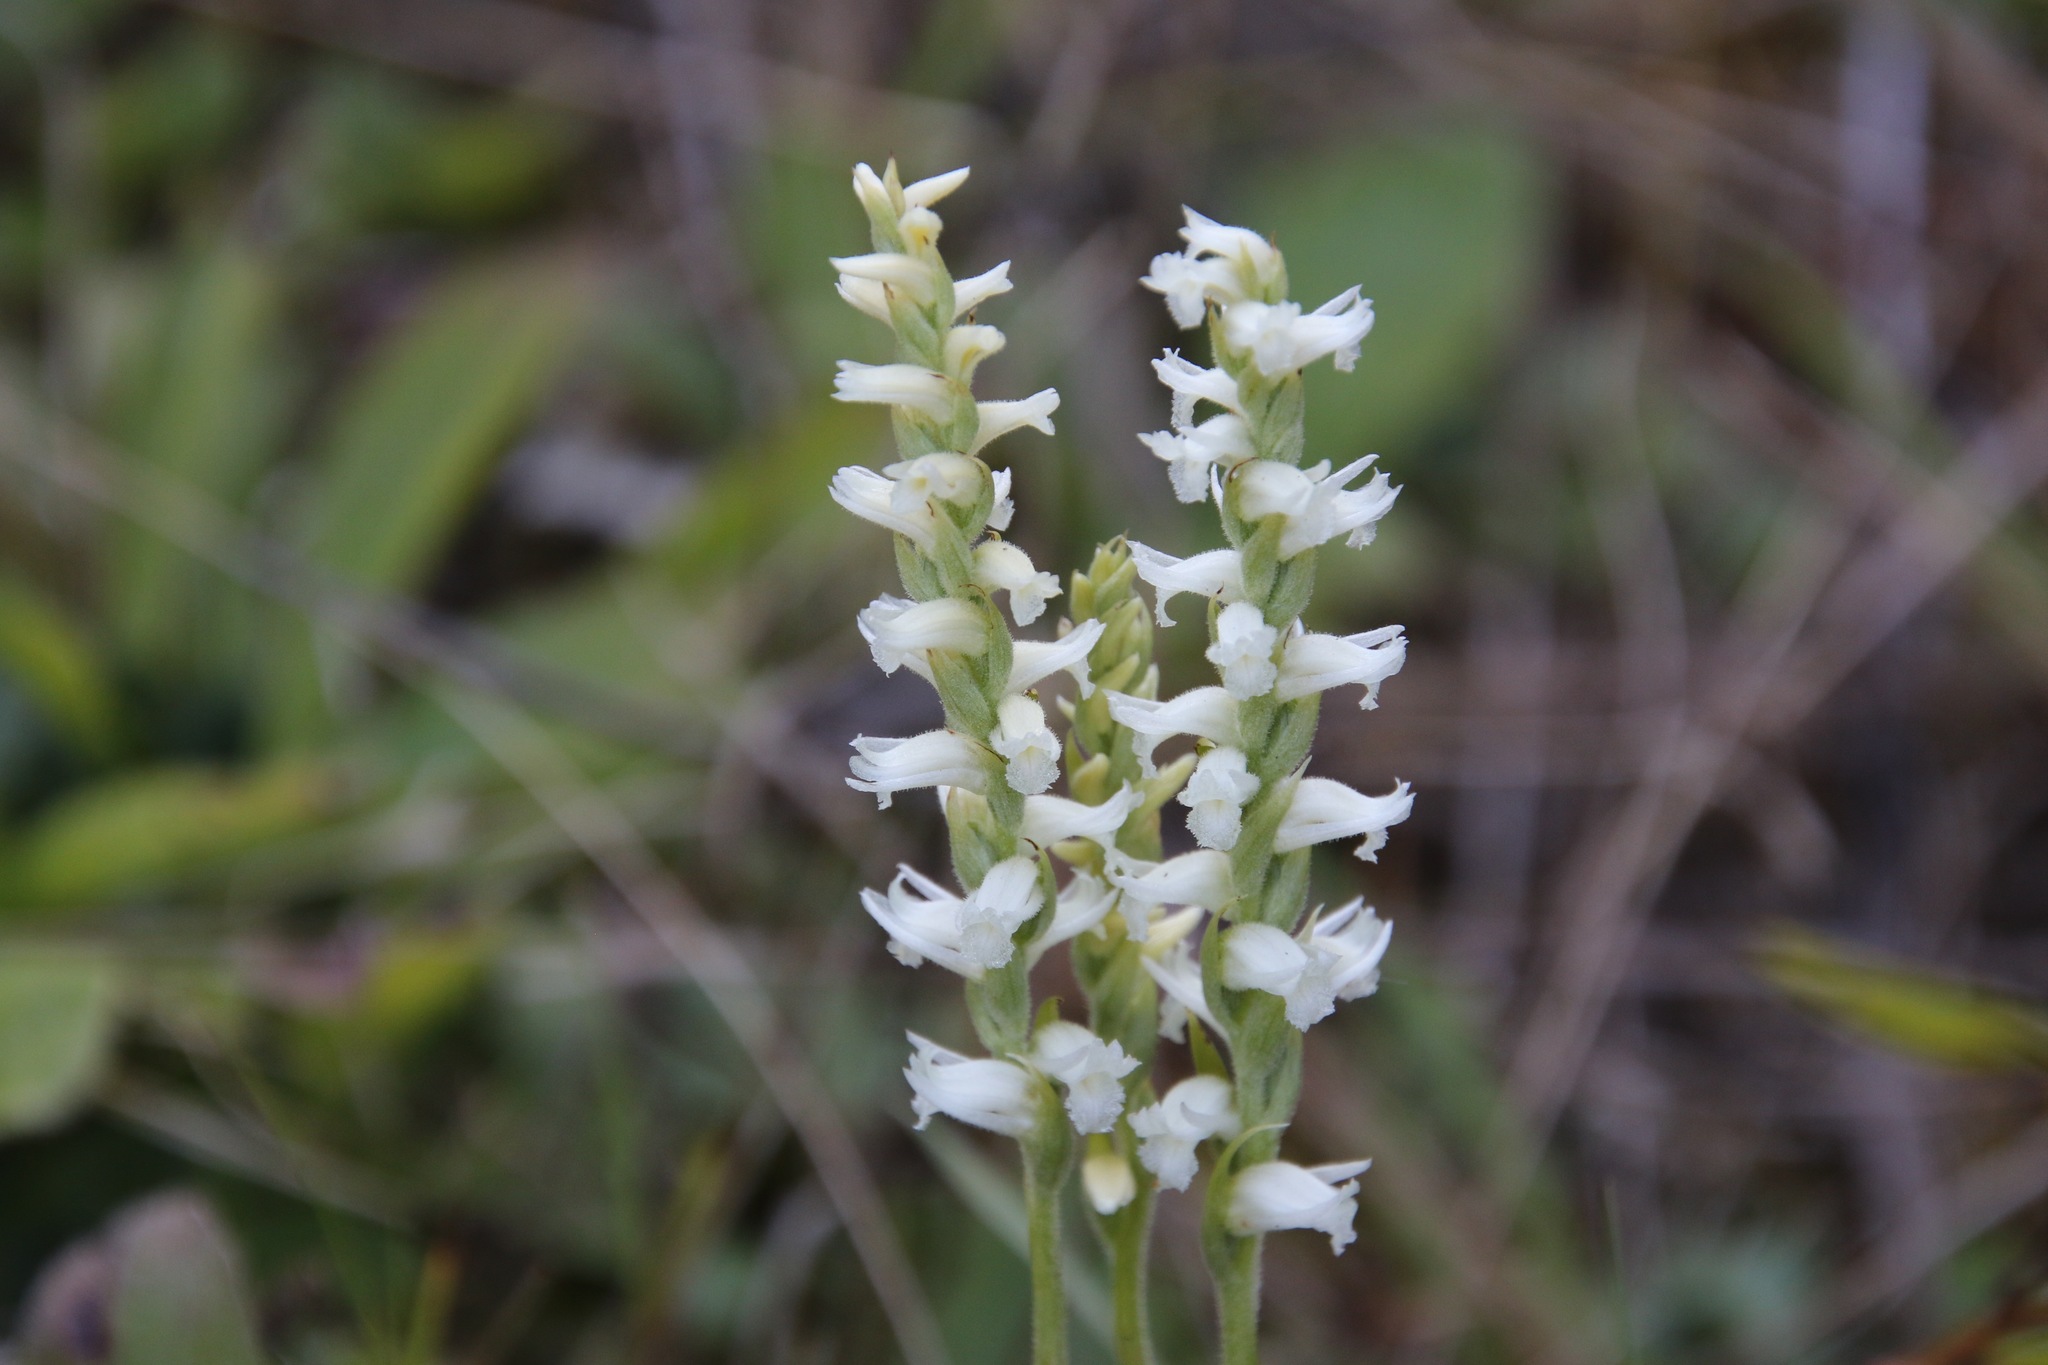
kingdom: Plantae
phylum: Tracheophyta
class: Liliopsida
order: Asparagales
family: Orchidaceae
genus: Spiranthes
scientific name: Spiranthes ochroleuca
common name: Yellow ladies'-tresses
